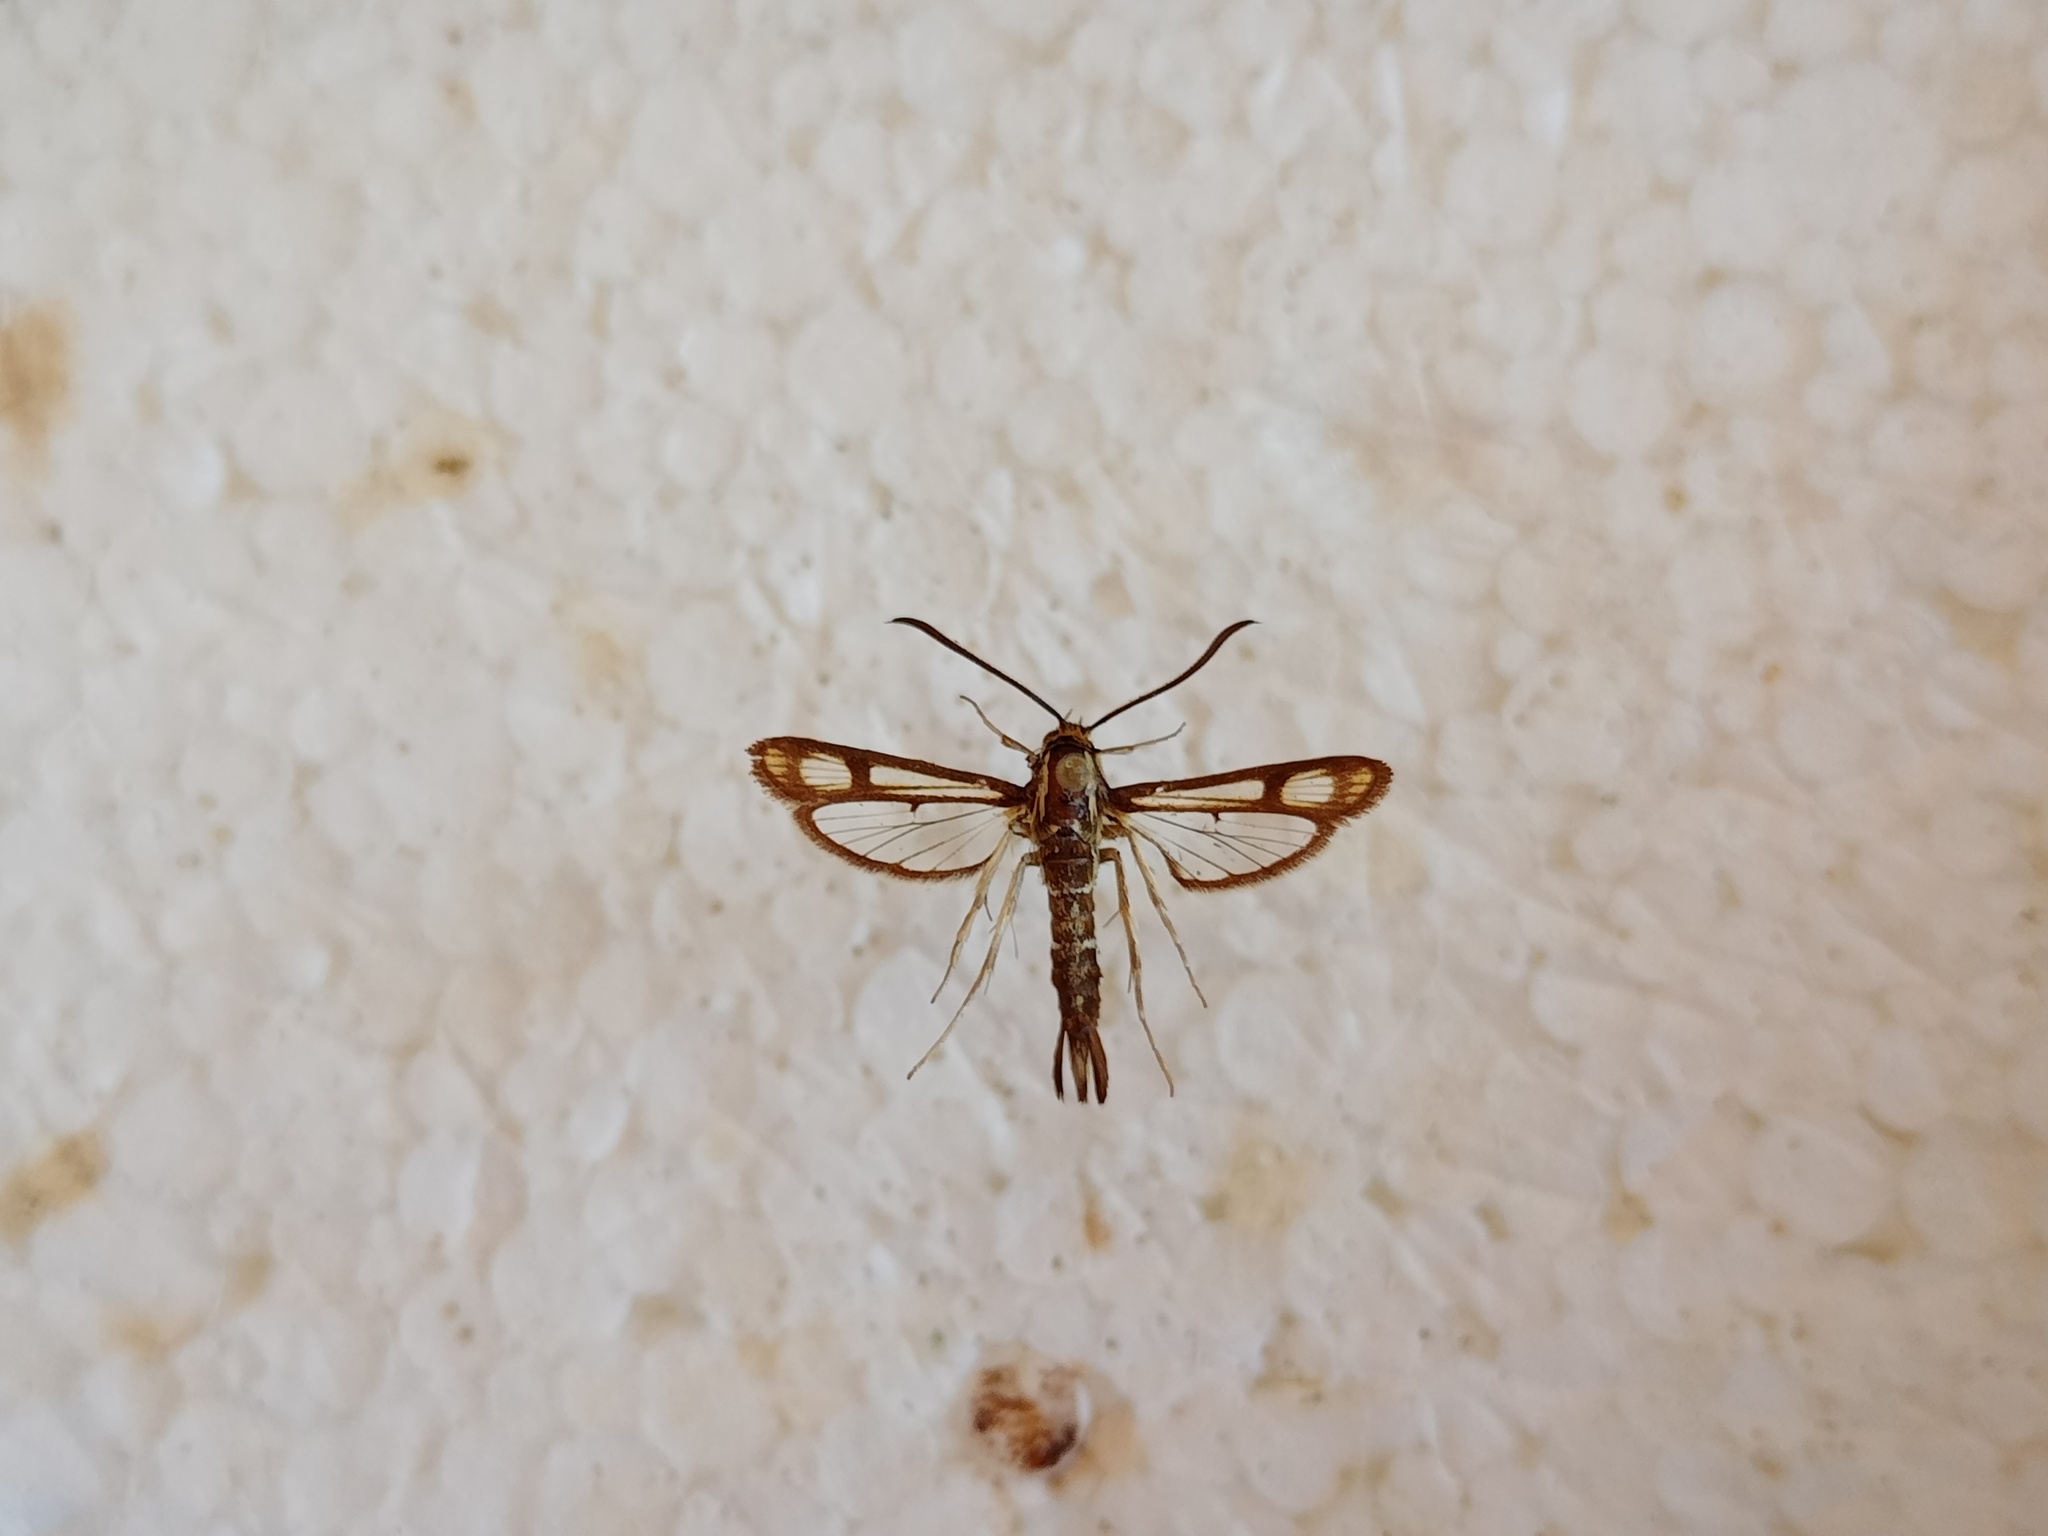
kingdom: Animalia
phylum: Arthropoda
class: Insecta
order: Lepidoptera
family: Sesiidae
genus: Pyropteron
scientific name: Pyropteron triannuliformis
